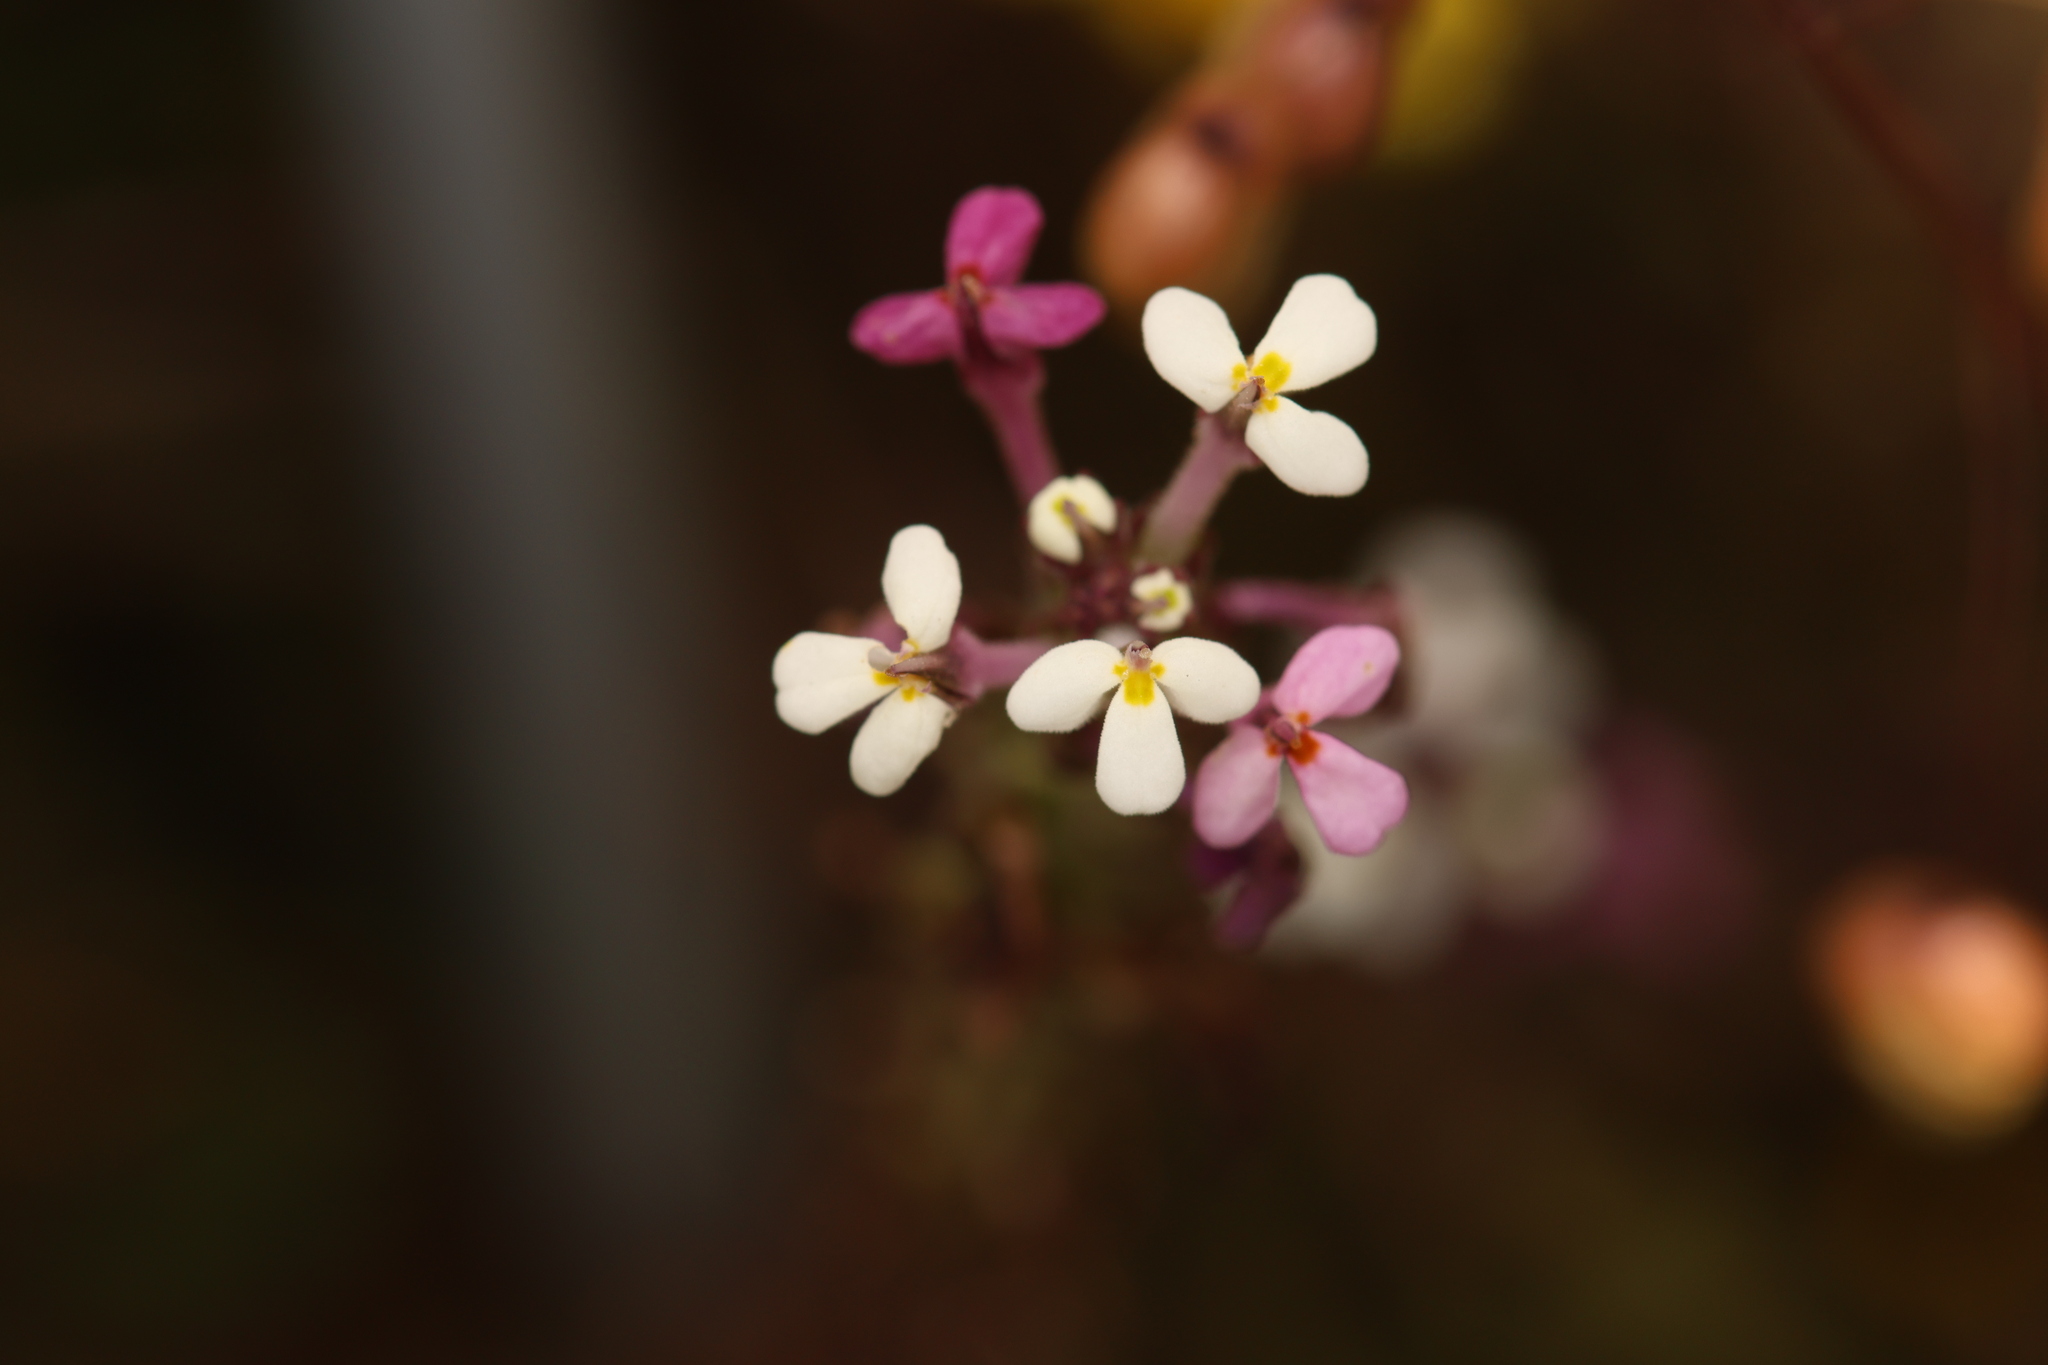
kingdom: Plantae
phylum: Tracheophyta
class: Magnoliopsida
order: Lamiales
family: Orobanchaceae
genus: Triphysaria
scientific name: Triphysaria versicolor
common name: Bearded false owl-clover
